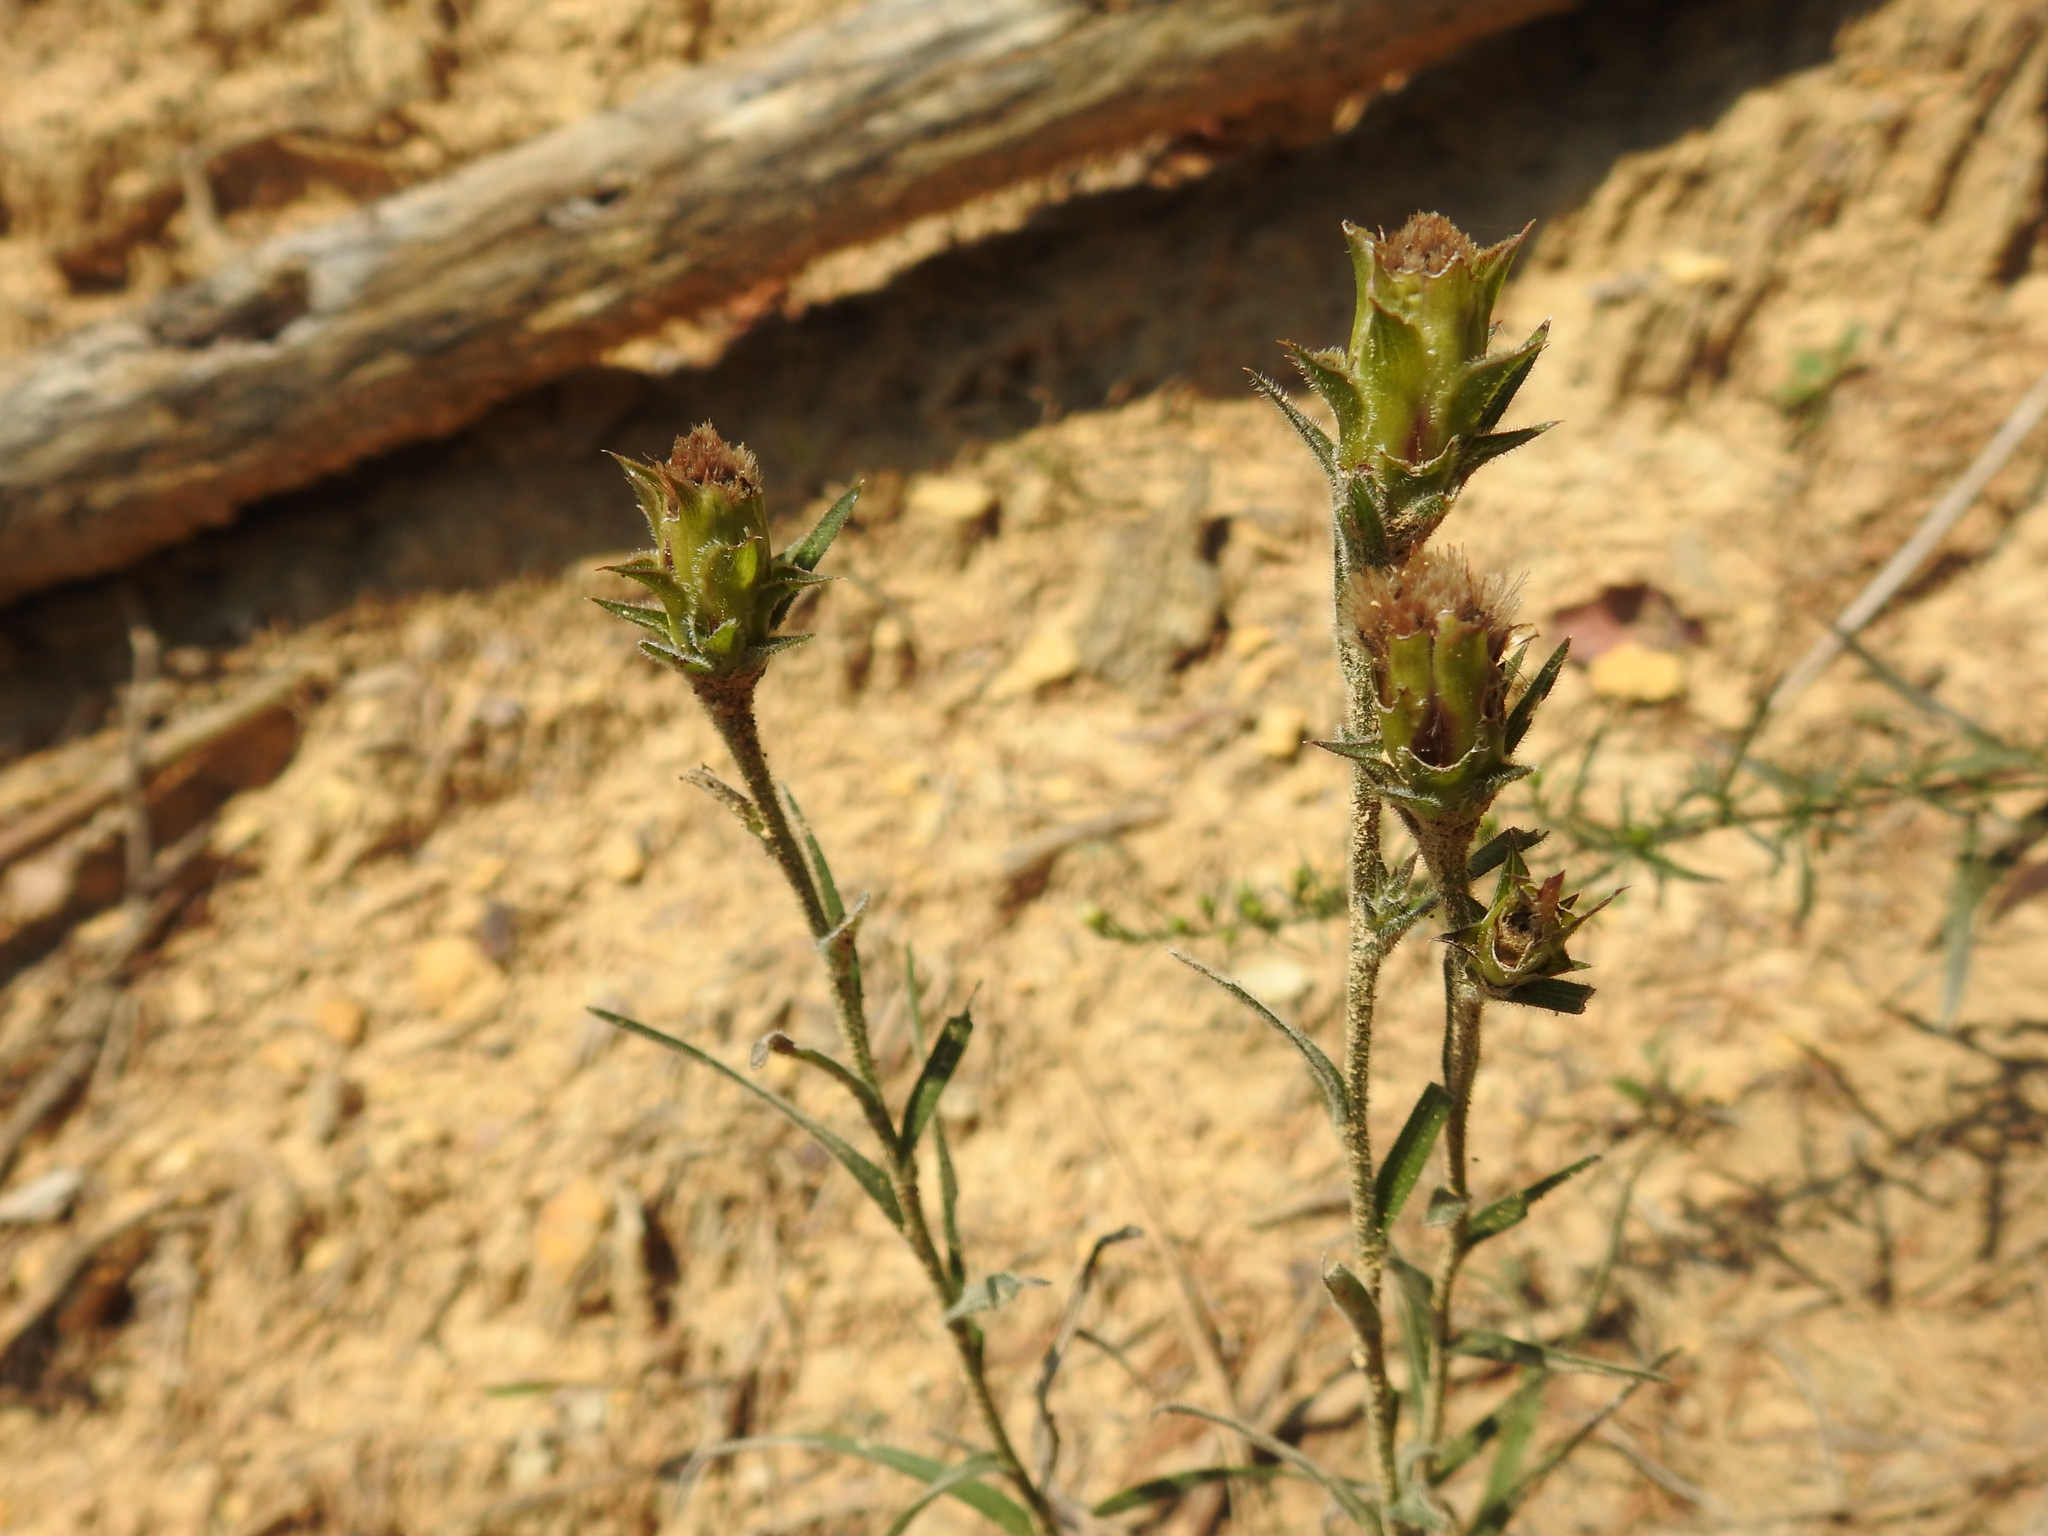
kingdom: Plantae
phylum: Tracheophyta
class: Magnoliopsida
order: Asterales
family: Asteraceae
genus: Liatris
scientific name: Liatris squarrosa
